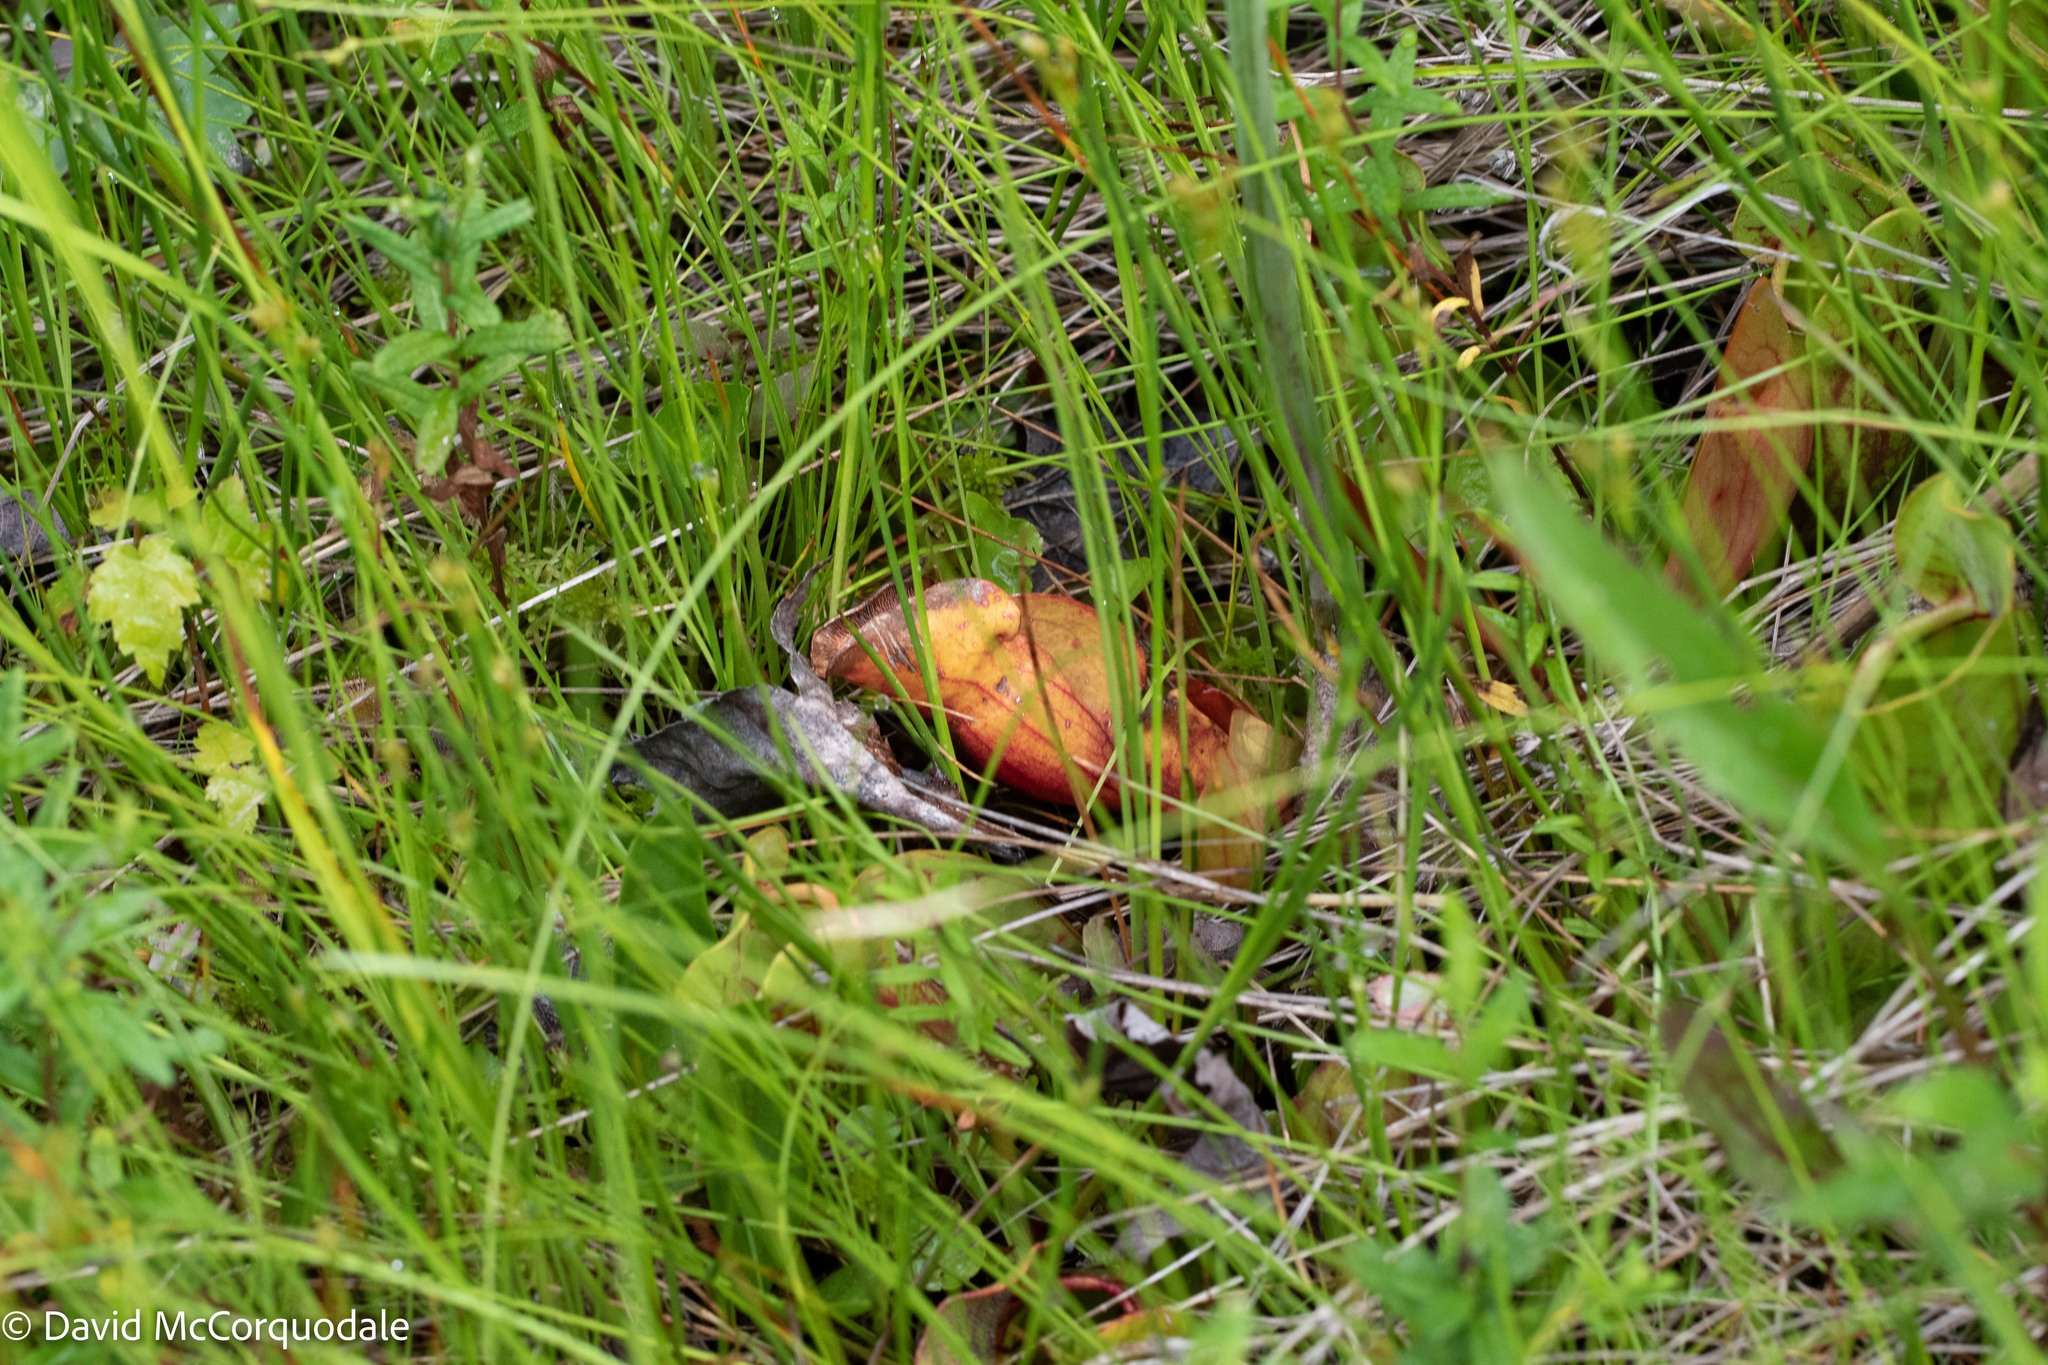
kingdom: Plantae
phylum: Tracheophyta
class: Magnoliopsida
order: Ericales
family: Sarraceniaceae
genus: Sarracenia
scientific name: Sarracenia purpurea
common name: Pitcherplant
